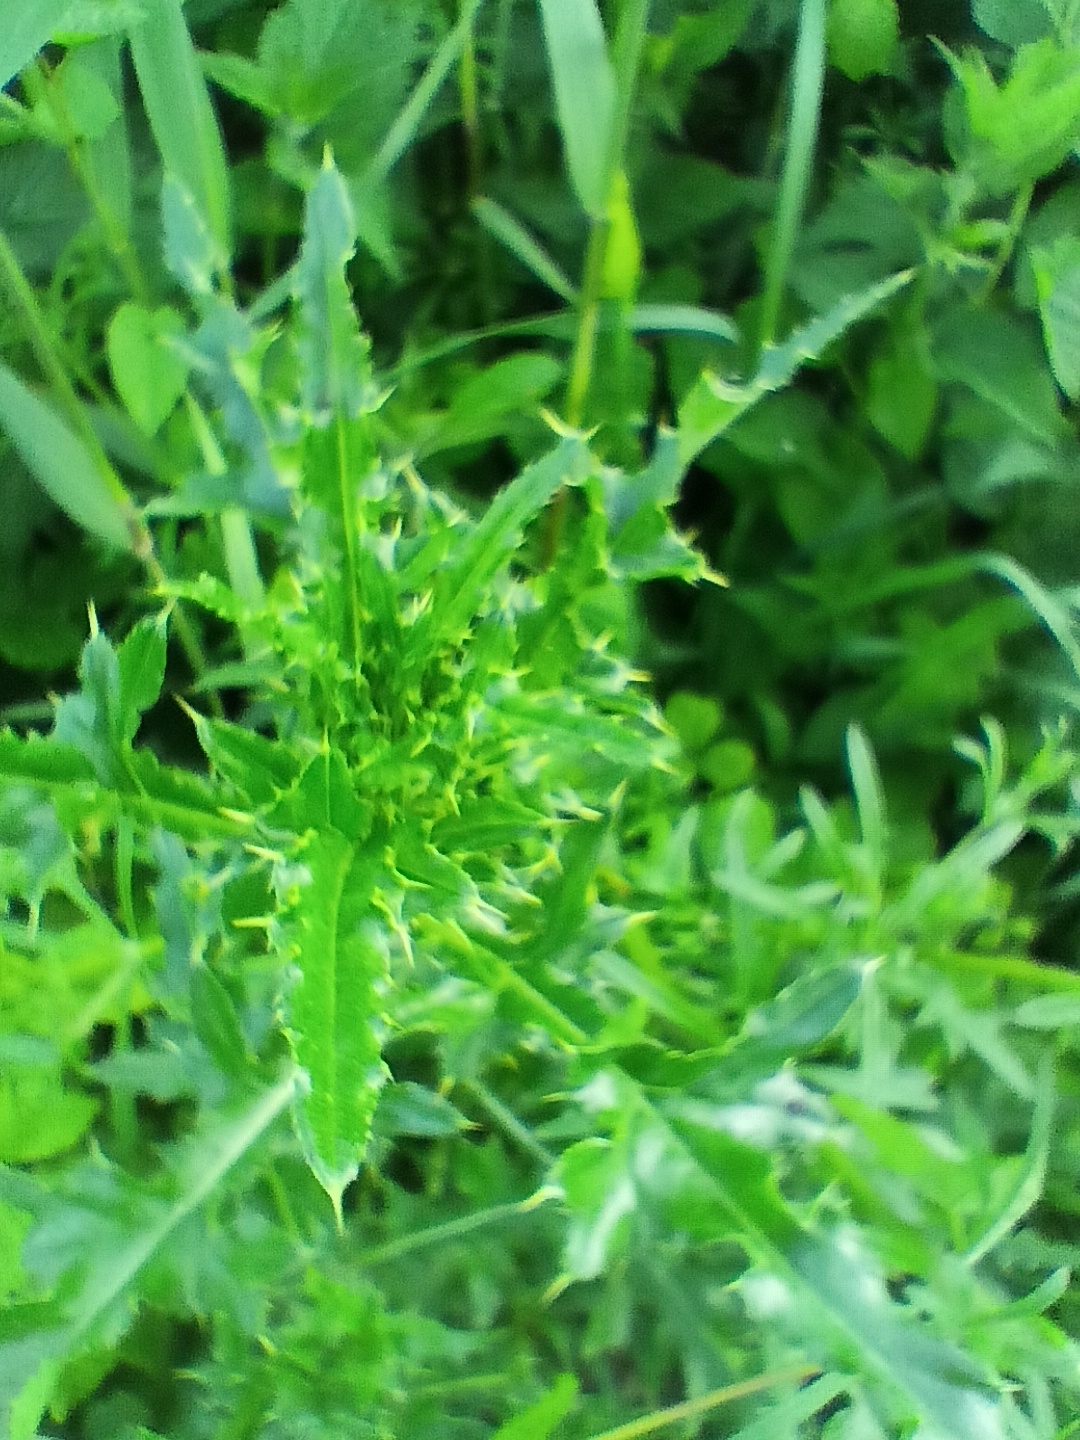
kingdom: Plantae
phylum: Tracheophyta
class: Magnoliopsida
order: Asterales
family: Asteraceae
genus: Cirsium
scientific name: Cirsium arvense
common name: Creeping thistle
